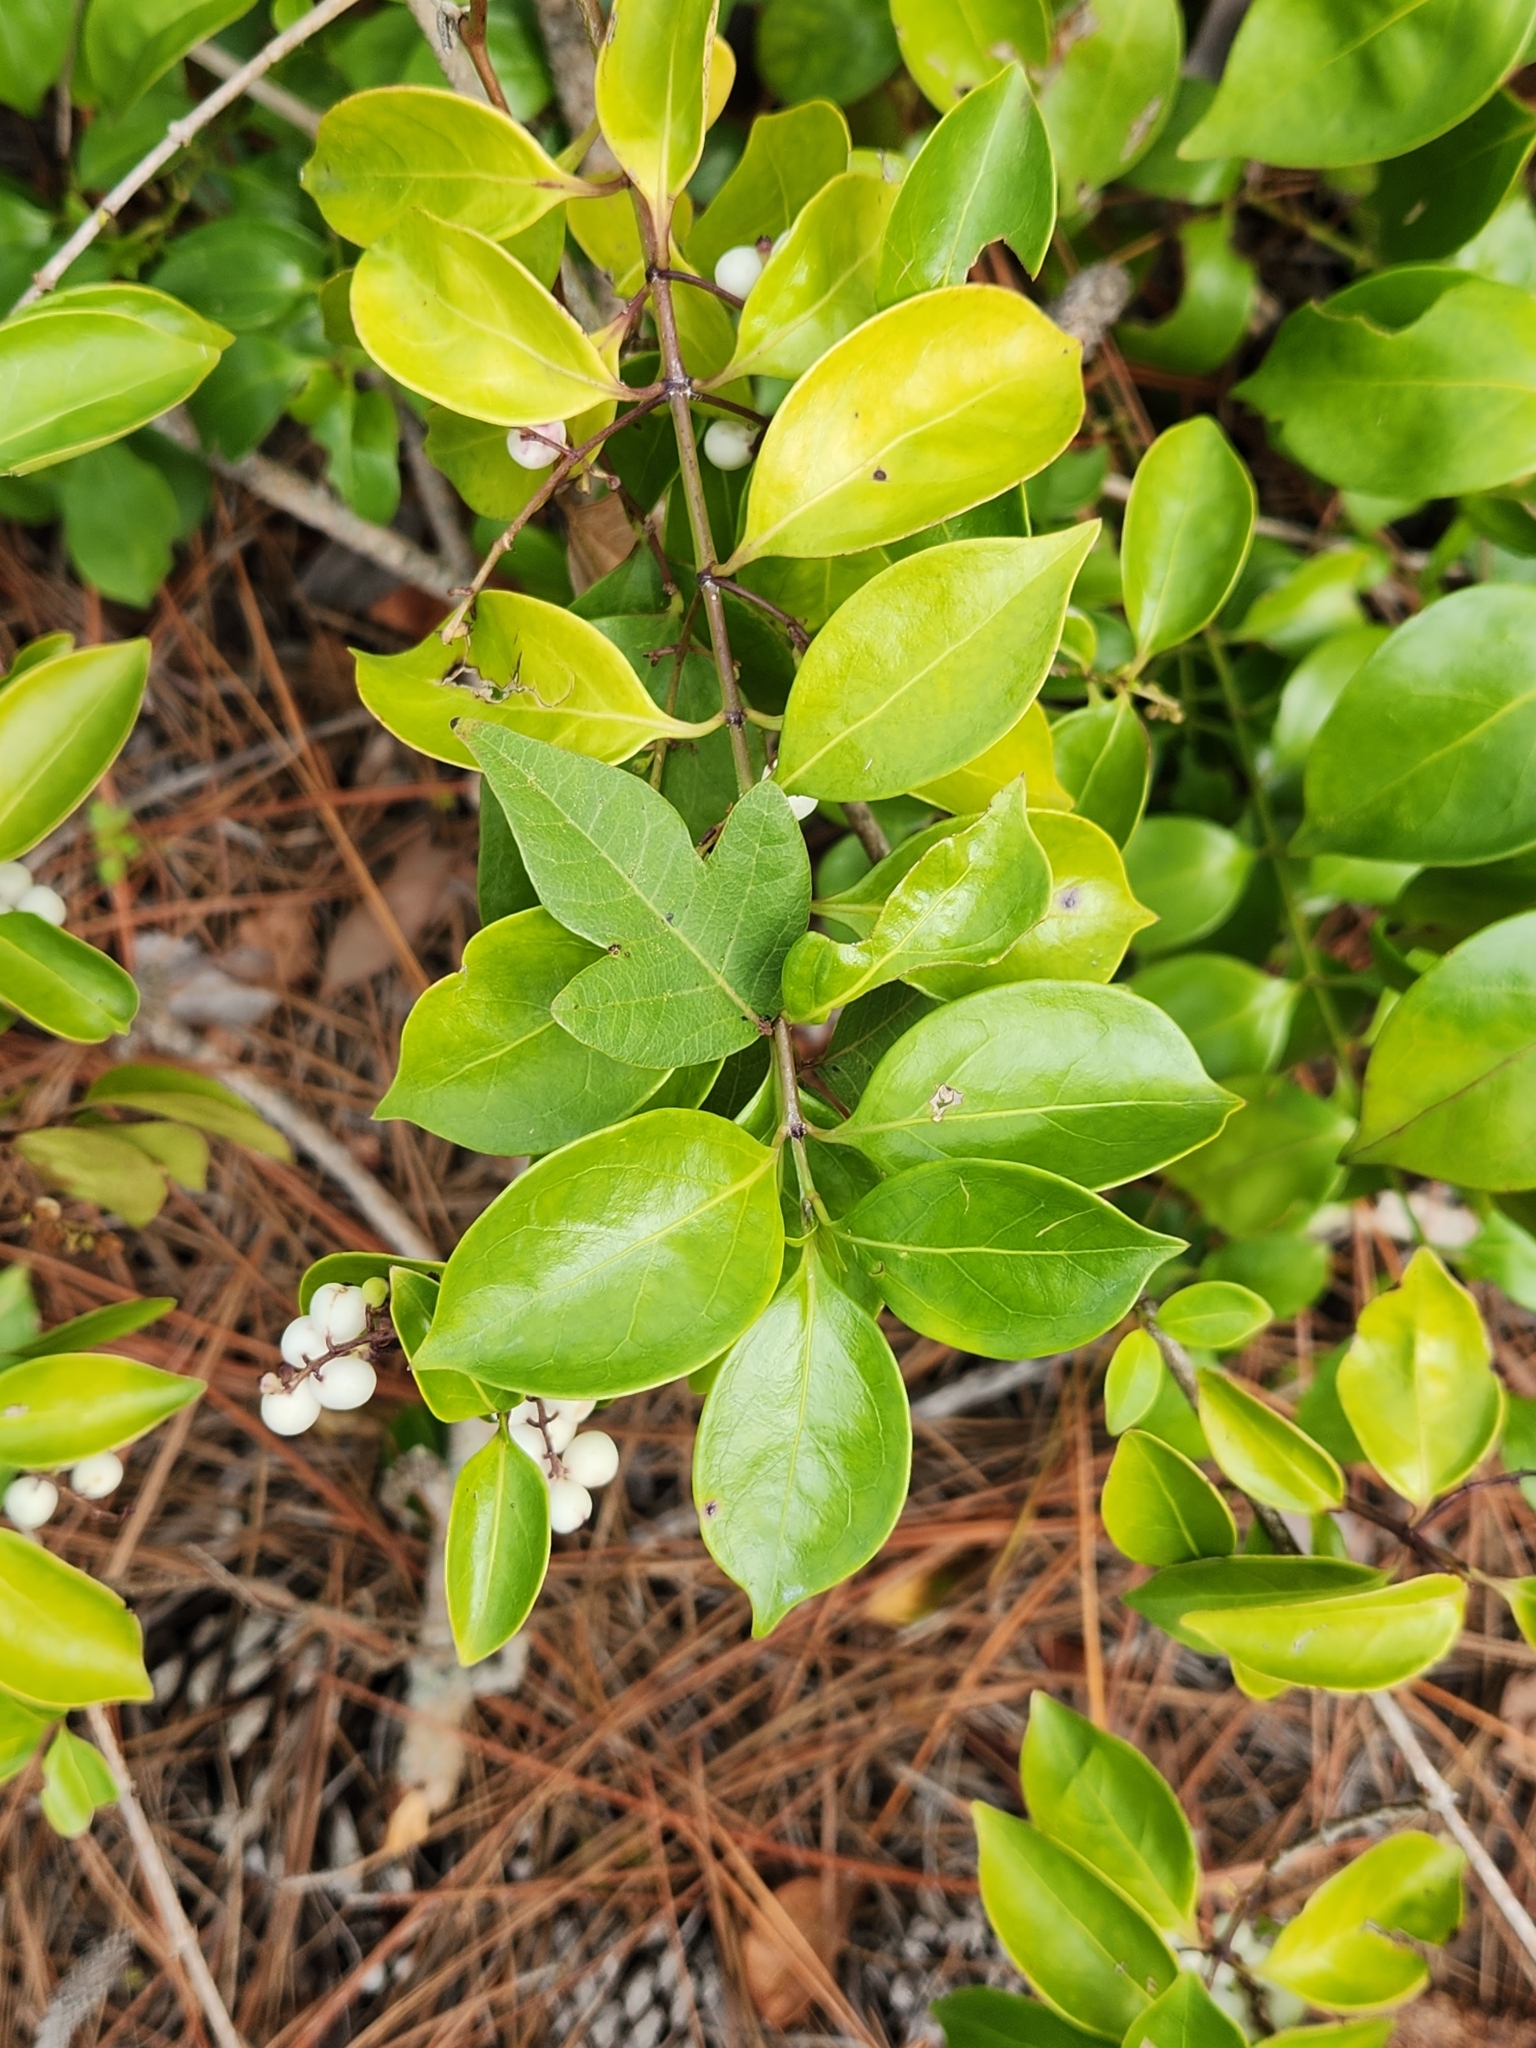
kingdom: Plantae
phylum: Tracheophyta
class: Magnoliopsida
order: Gentianales
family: Rubiaceae
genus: Chiococca
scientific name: Chiococca alba
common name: Snowberry
